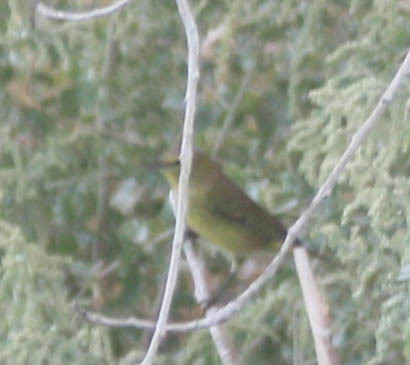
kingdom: Animalia
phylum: Chordata
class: Aves
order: Passeriformes
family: Parulidae
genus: Leiothlypis
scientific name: Leiothlypis celata
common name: Orange-crowned warbler
